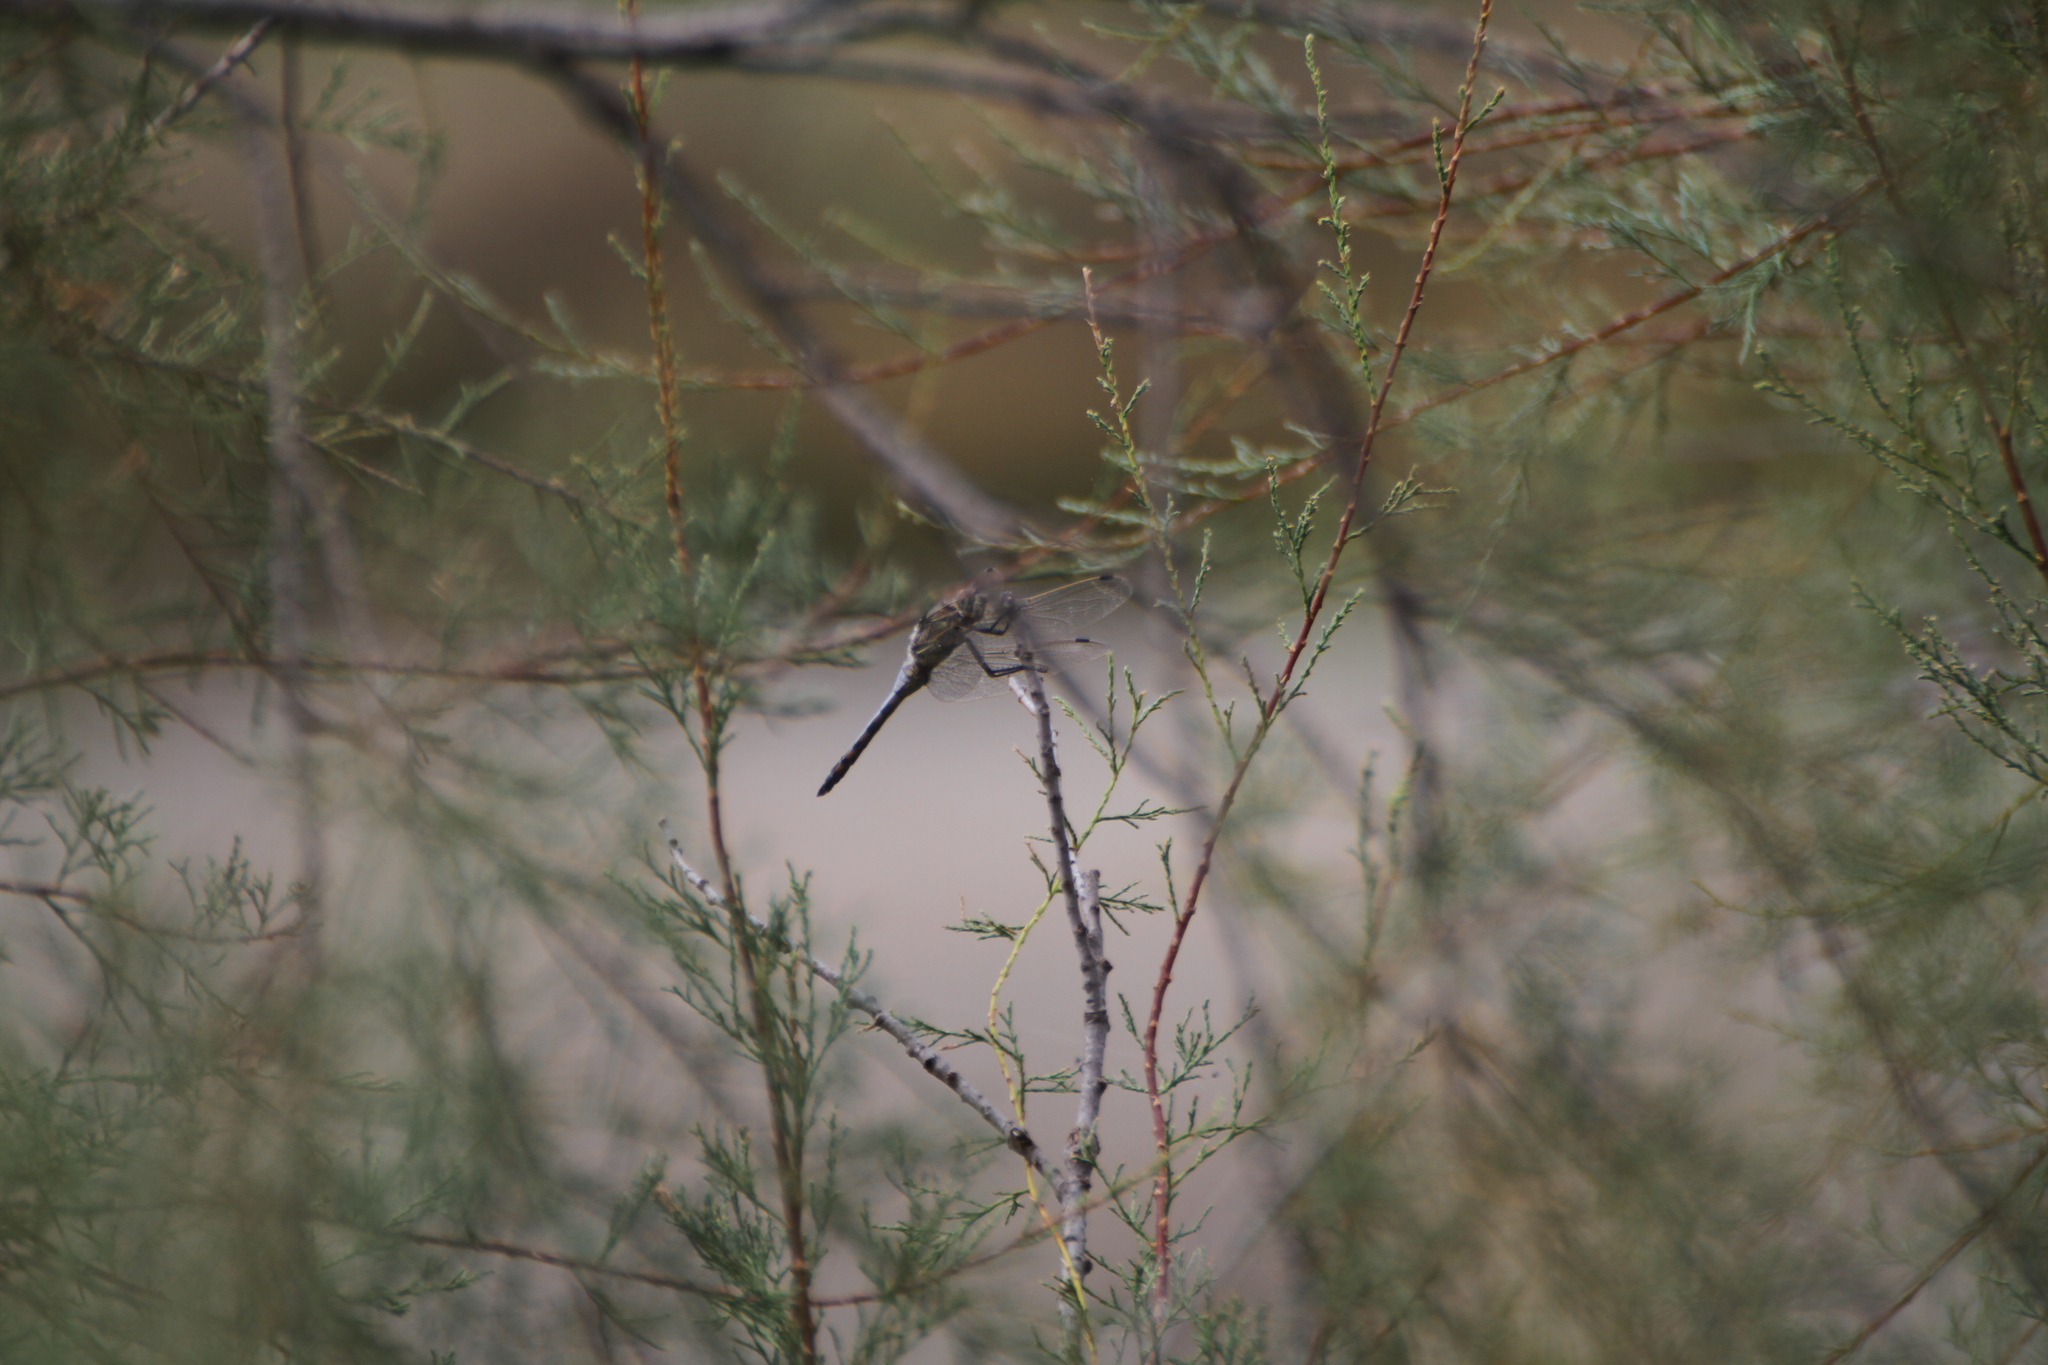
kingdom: Animalia
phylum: Arthropoda
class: Insecta
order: Odonata
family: Libellulidae
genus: Orthetrum
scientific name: Orthetrum cancellatum
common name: Black-tailed skimmer
